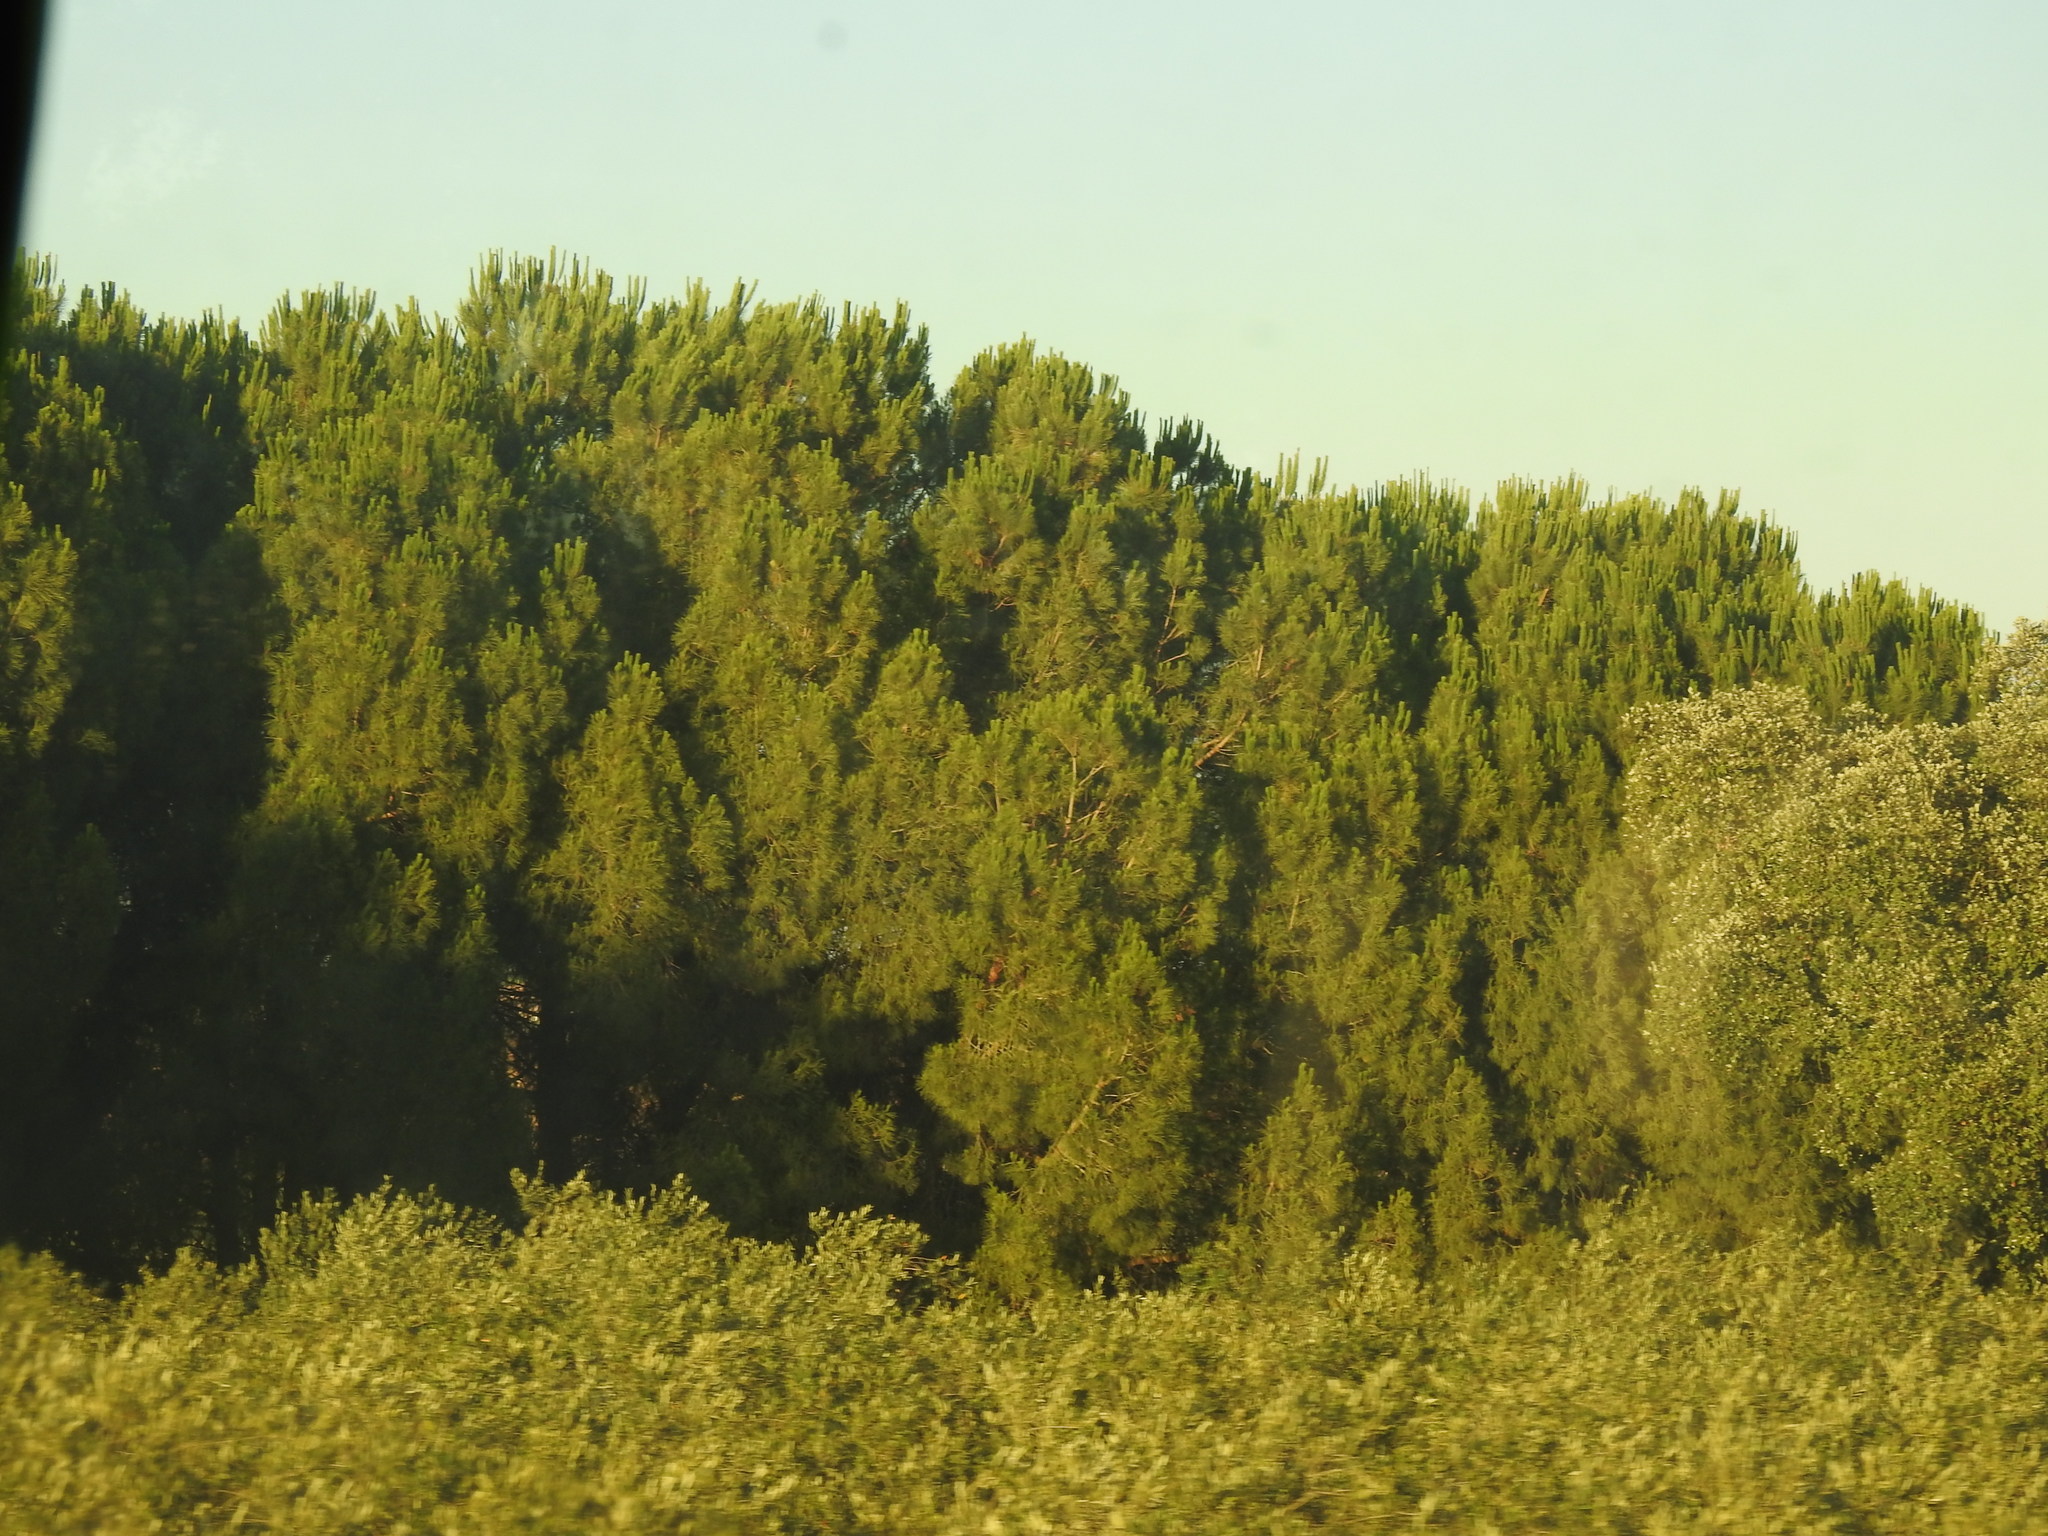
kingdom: Plantae
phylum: Tracheophyta
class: Pinopsida
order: Pinales
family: Pinaceae
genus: Pinus
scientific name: Pinus pinea
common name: Italian stone pine
